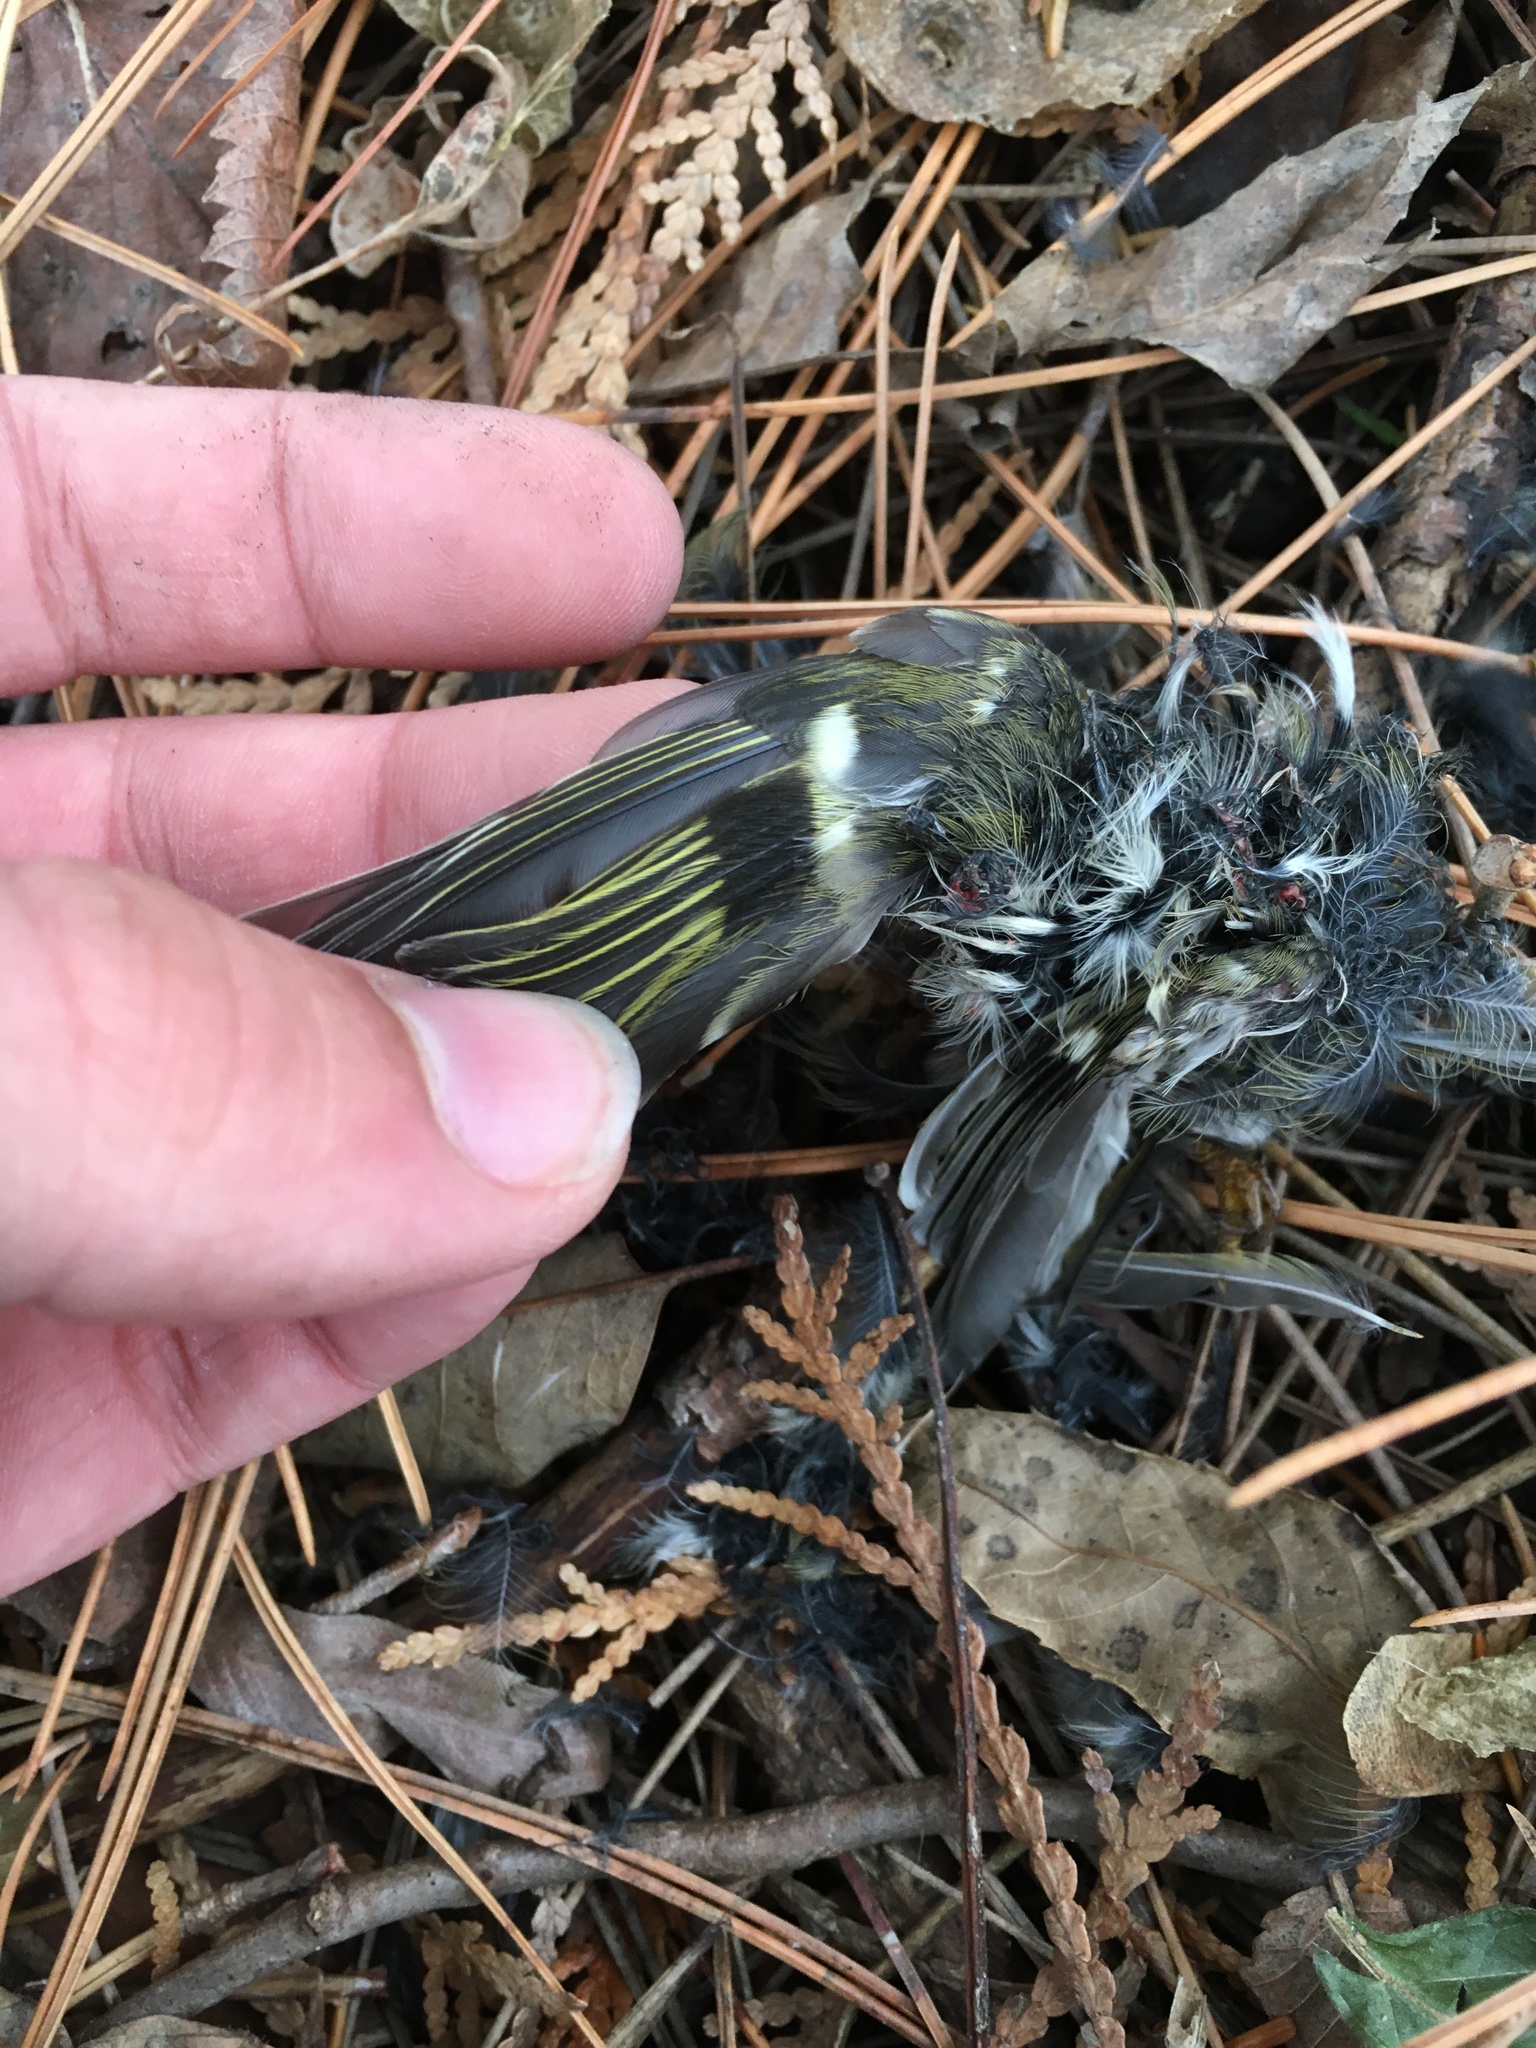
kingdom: Animalia
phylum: Chordata
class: Aves
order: Passeriformes
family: Regulidae
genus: Regulus
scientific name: Regulus satrapa
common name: Golden-crowned kinglet
